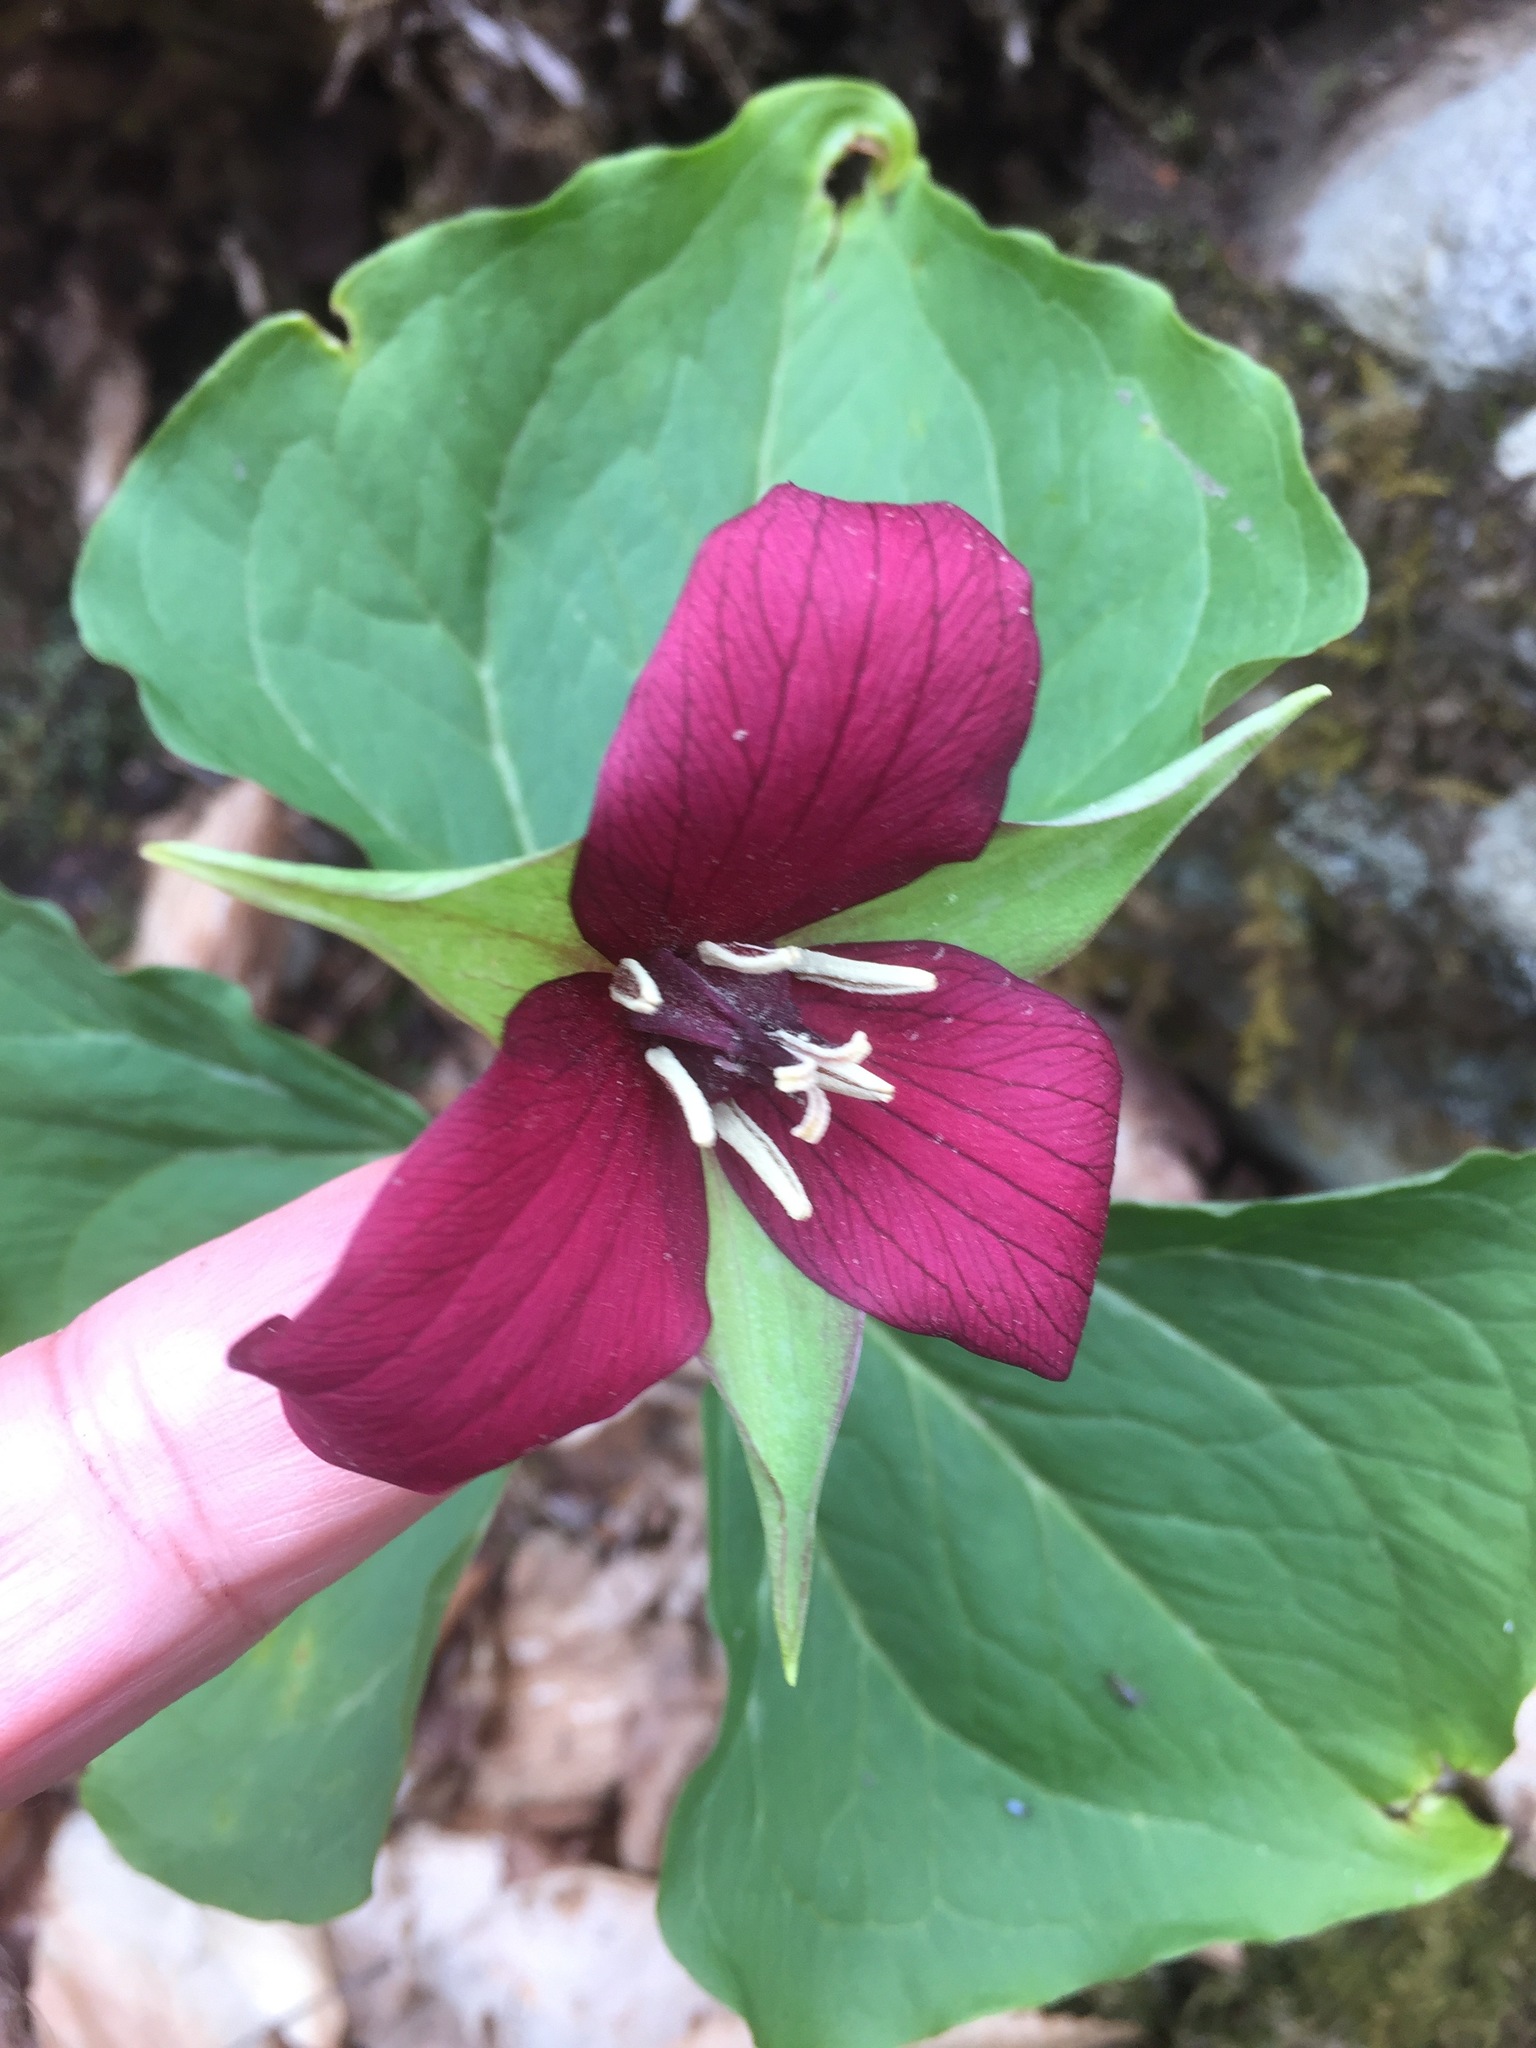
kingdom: Plantae
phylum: Tracheophyta
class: Liliopsida
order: Liliales
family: Melanthiaceae
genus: Trillium
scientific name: Trillium erectum
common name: Purple trillium
